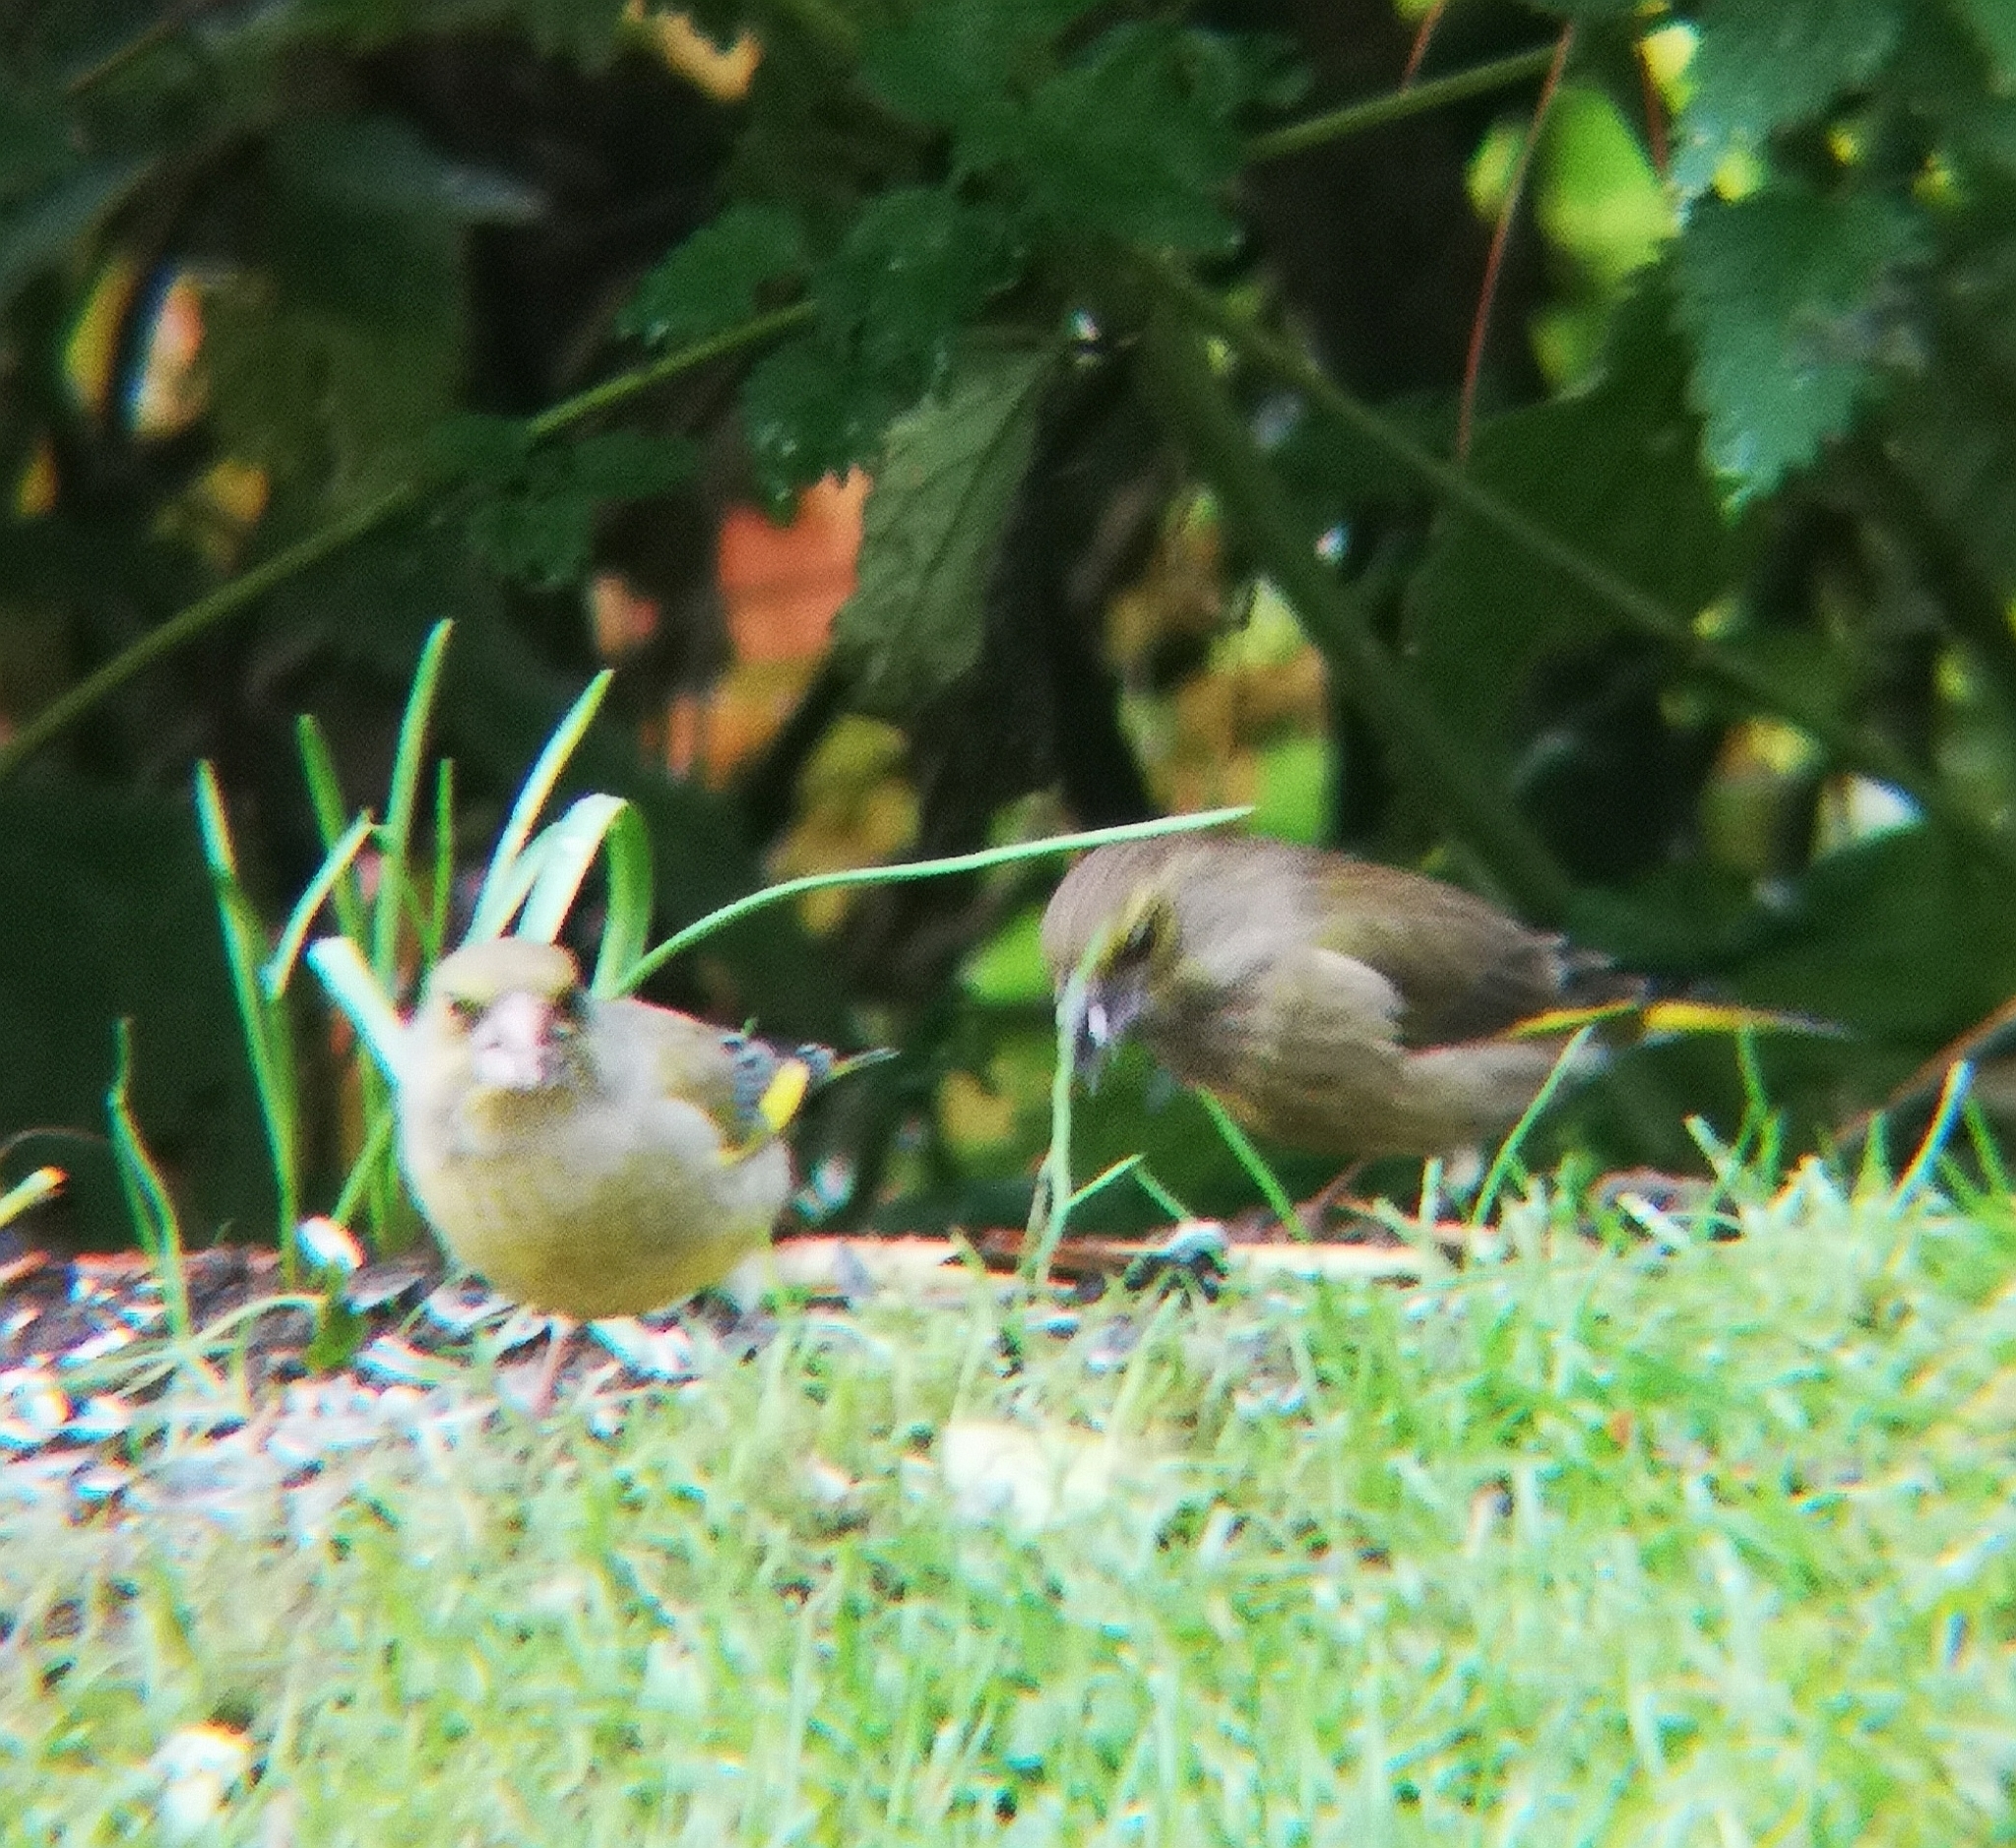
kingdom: Plantae
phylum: Tracheophyta
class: Liliopsida
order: Poales
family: Poaceae
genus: Chloris
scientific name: Chloris chloris
